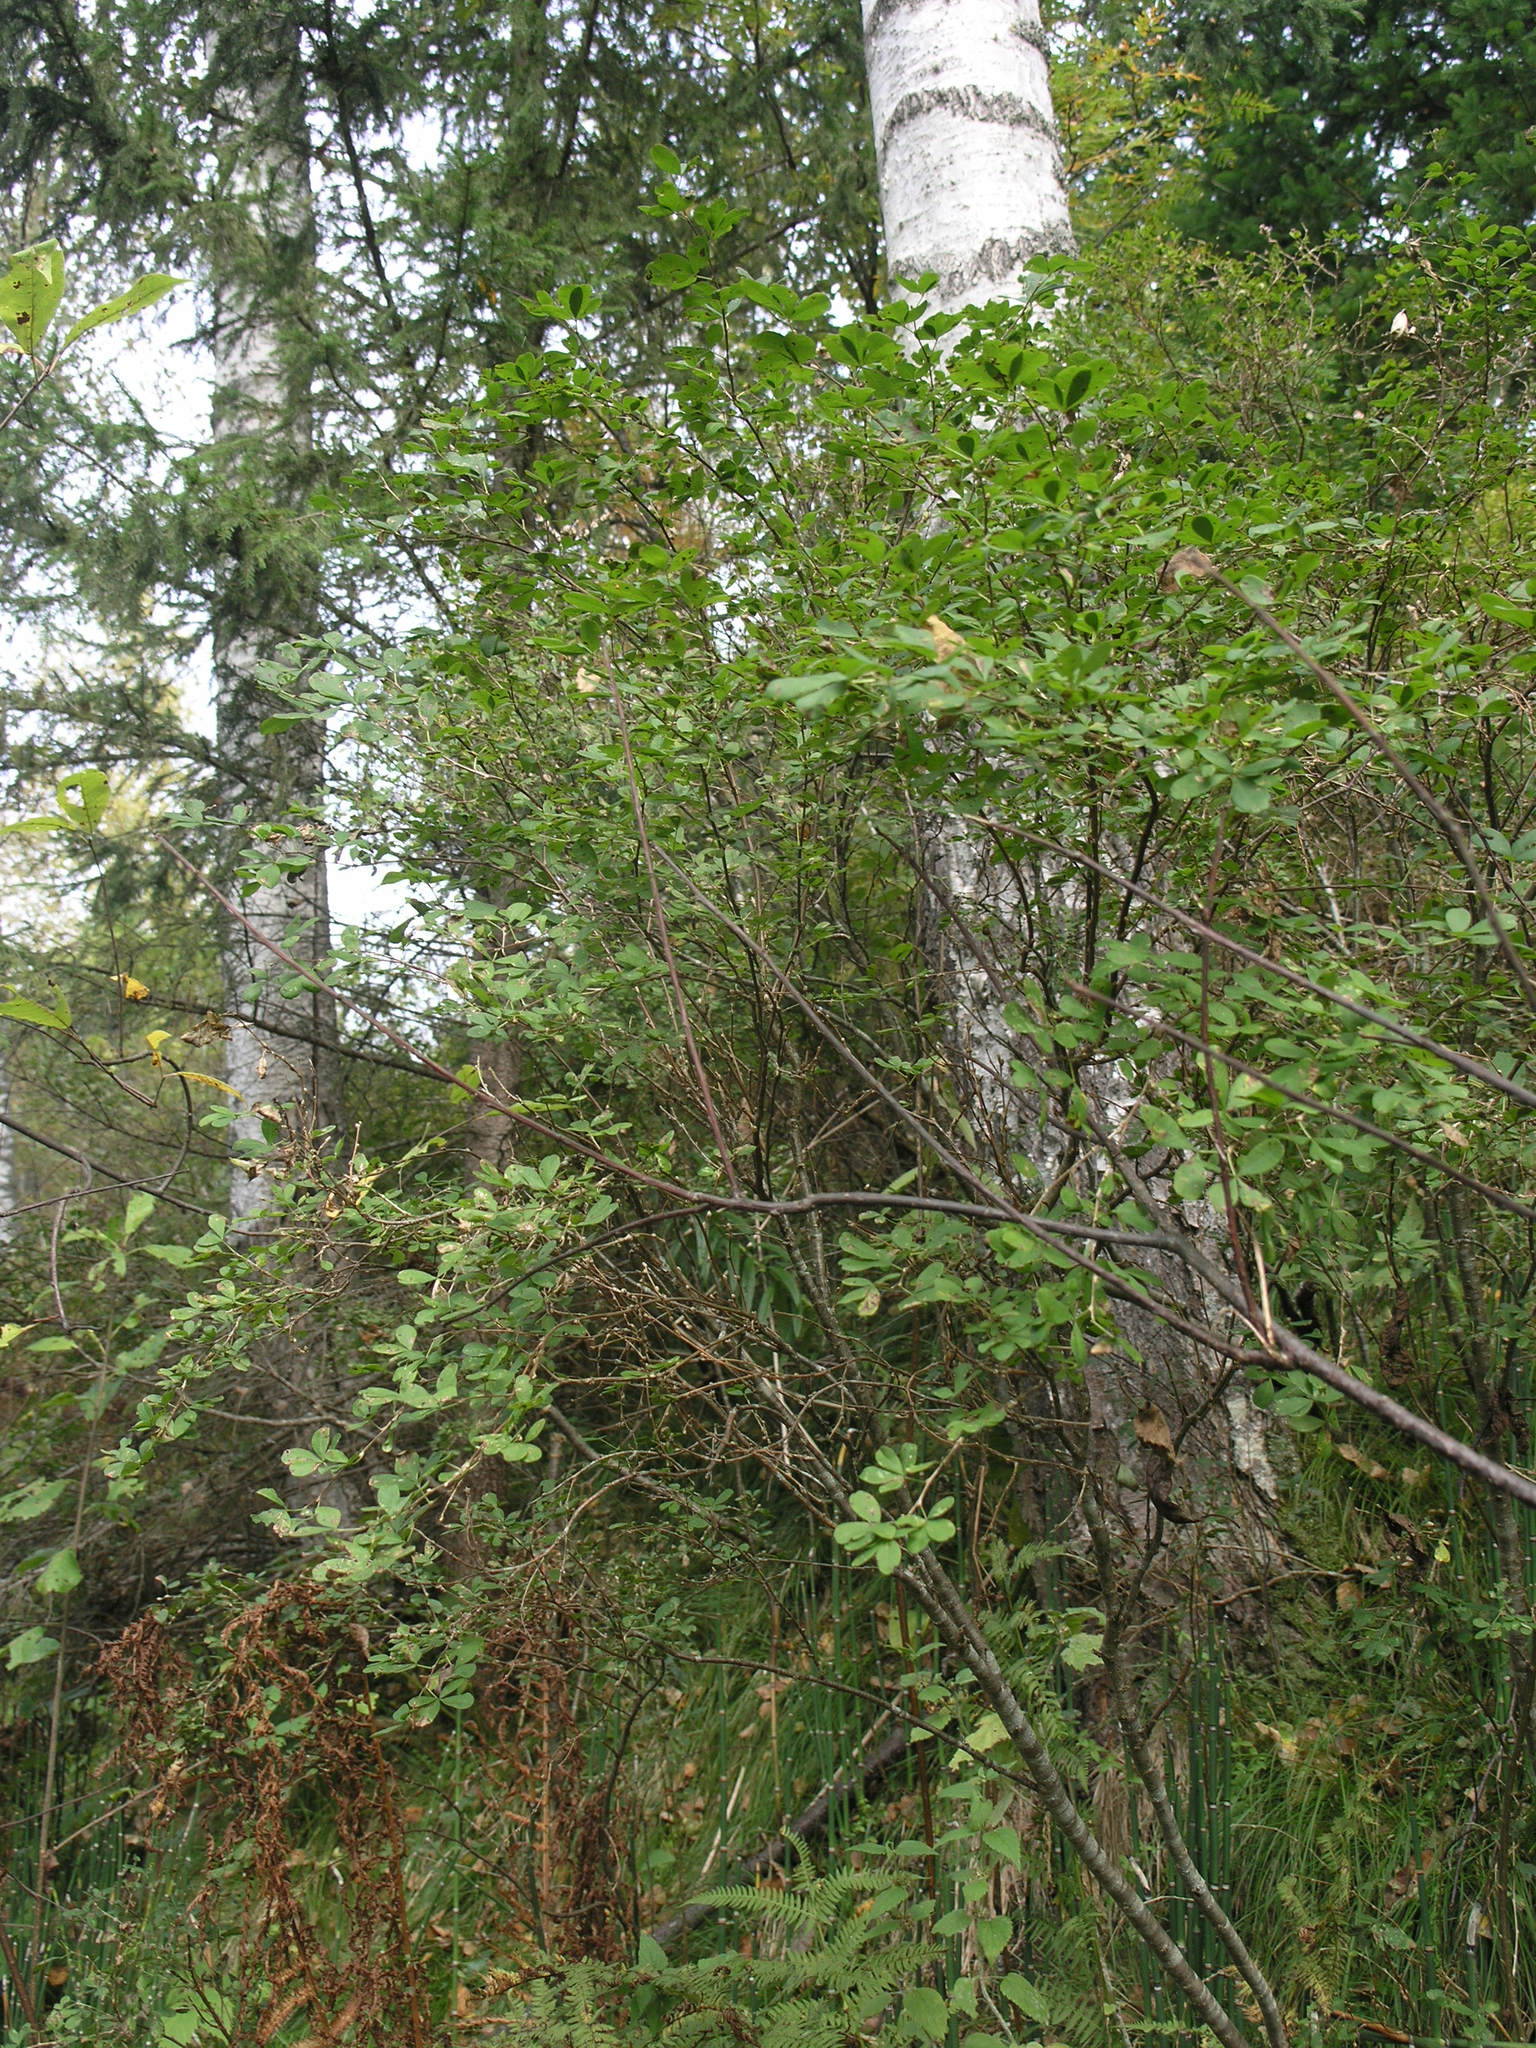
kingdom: Plantae
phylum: Tracheophyta
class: Magnoliopsida
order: Fabales
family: Fabaceae
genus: Caragana
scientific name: Caragana frutex
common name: Russian peashrub
